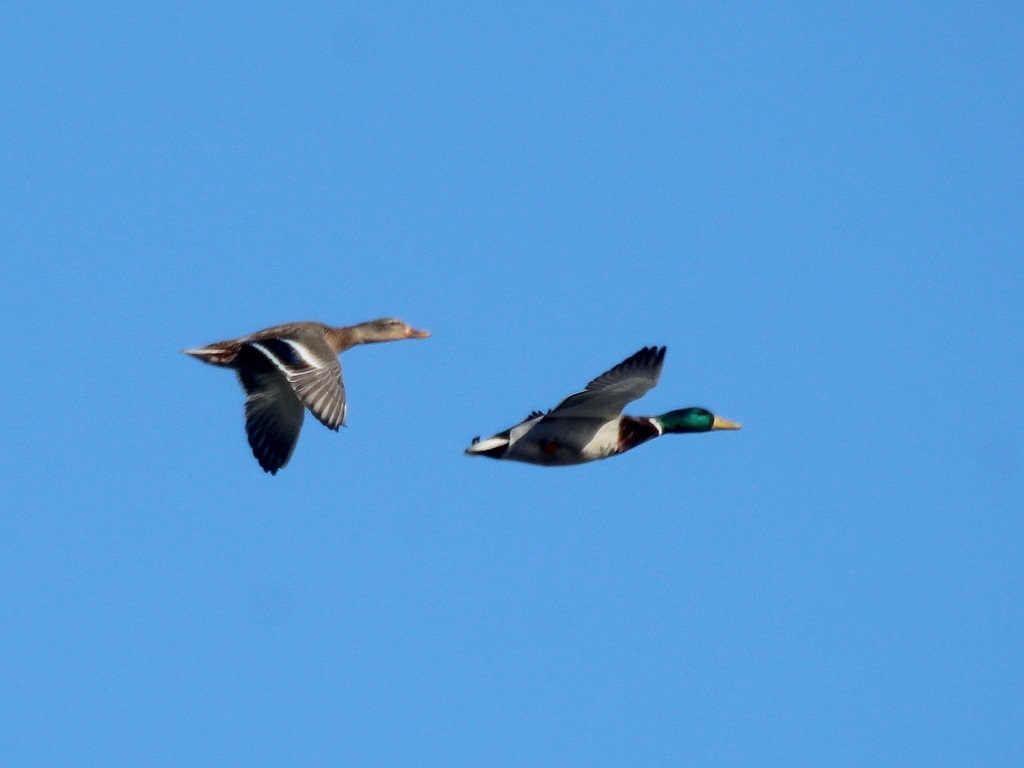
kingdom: Animalia
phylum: Chordata
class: Aves
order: Anseriformes
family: Anatidae
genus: Anas
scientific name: Anas platyrhynchos
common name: Mallard
